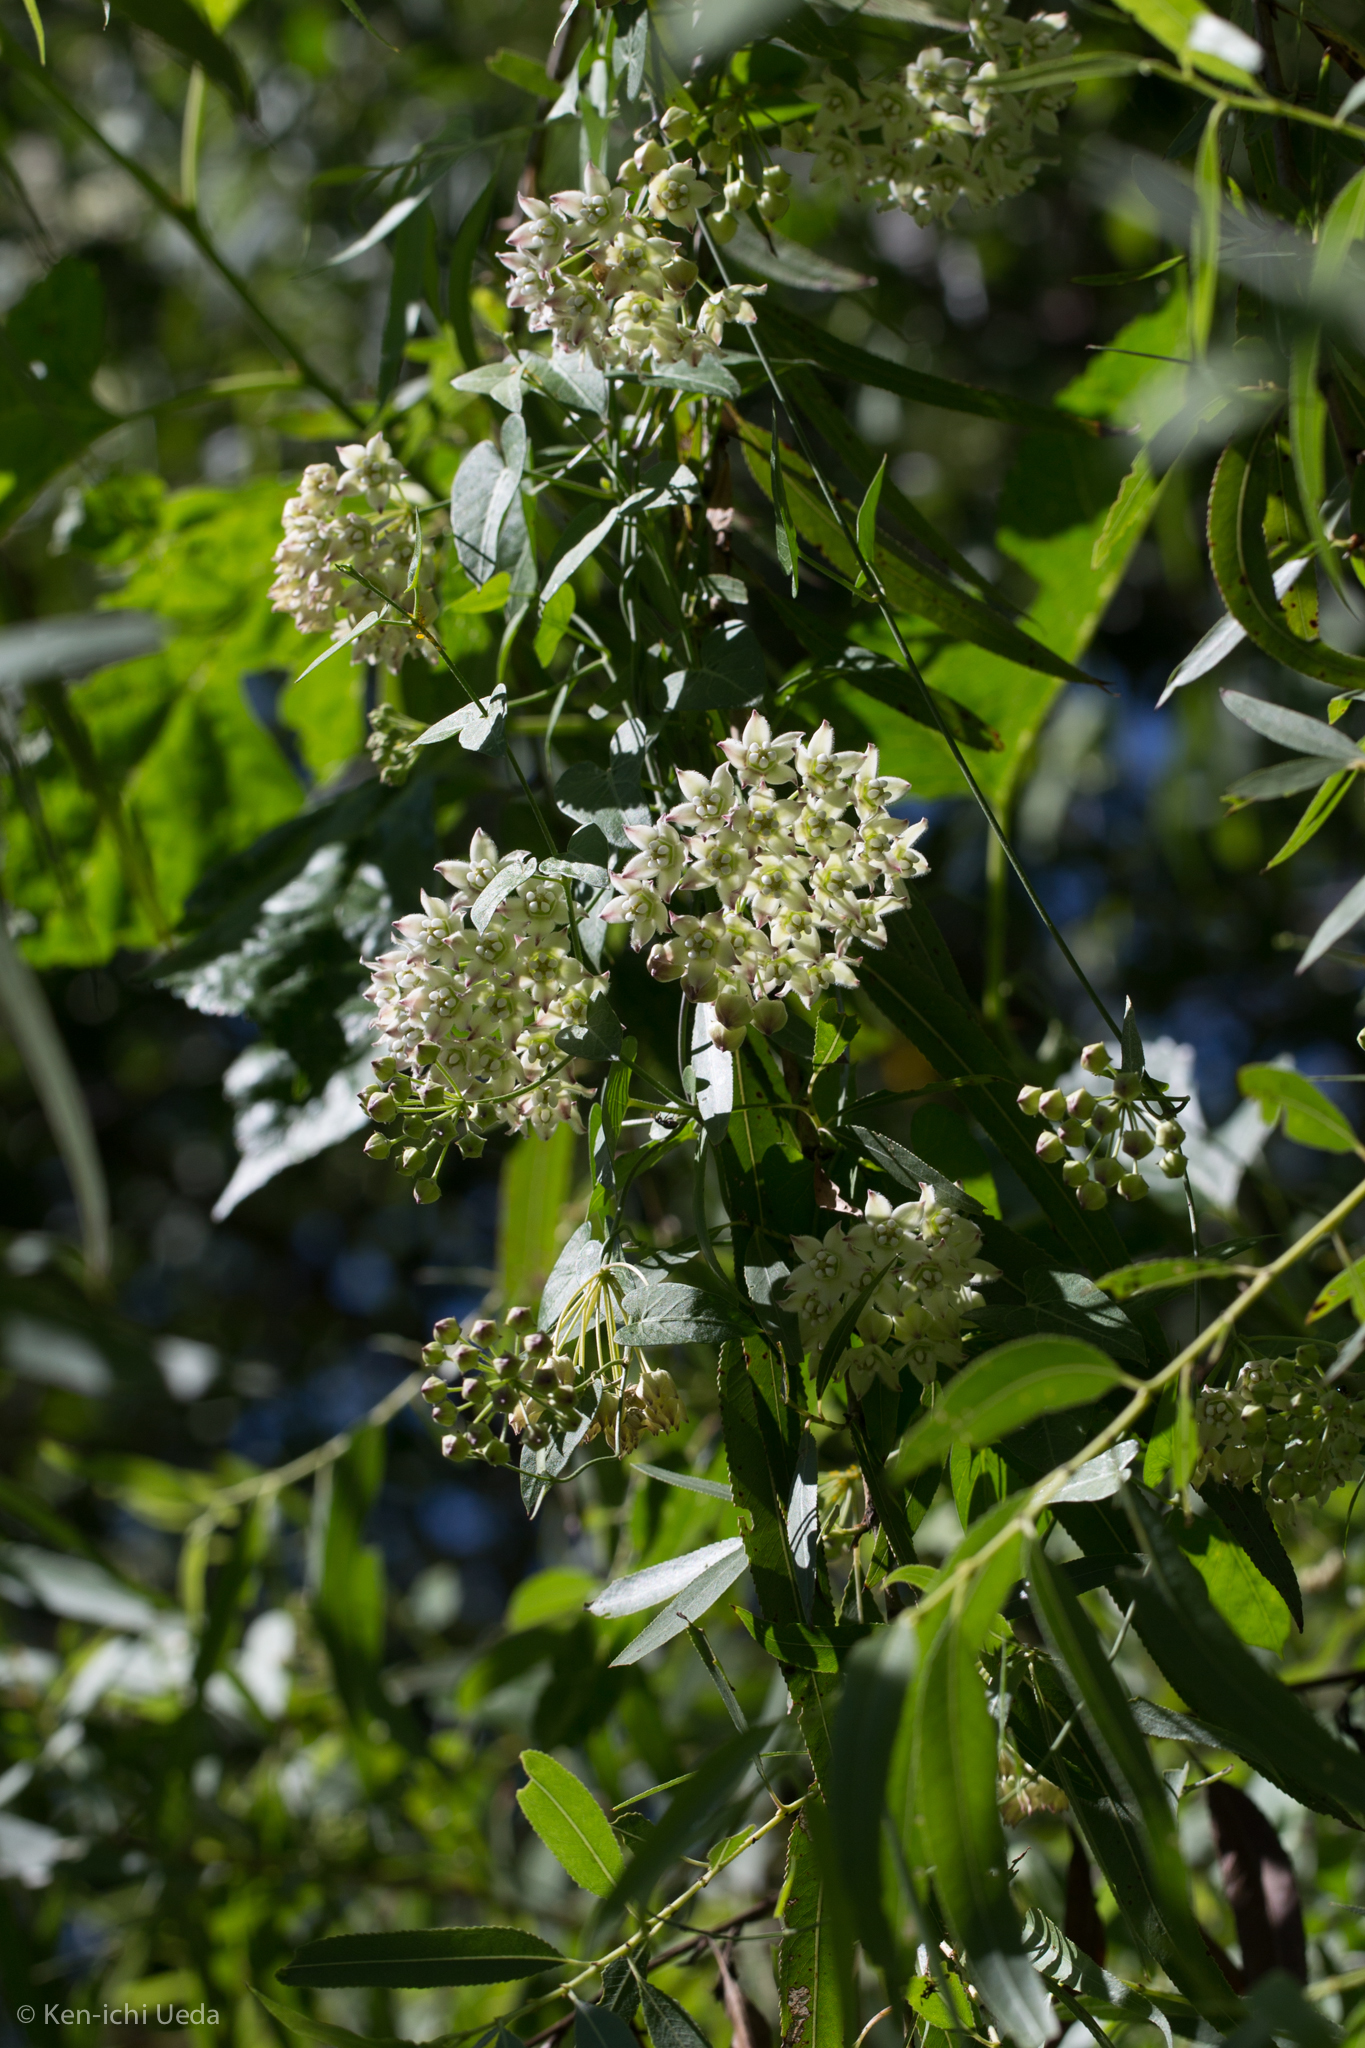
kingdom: Plantae
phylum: Tracheophyta
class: Magnoliopsida
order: Gentianales
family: Apocynaceae
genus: Funastrum
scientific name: Funastrum cynanchoides
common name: Climbing-milkweed
